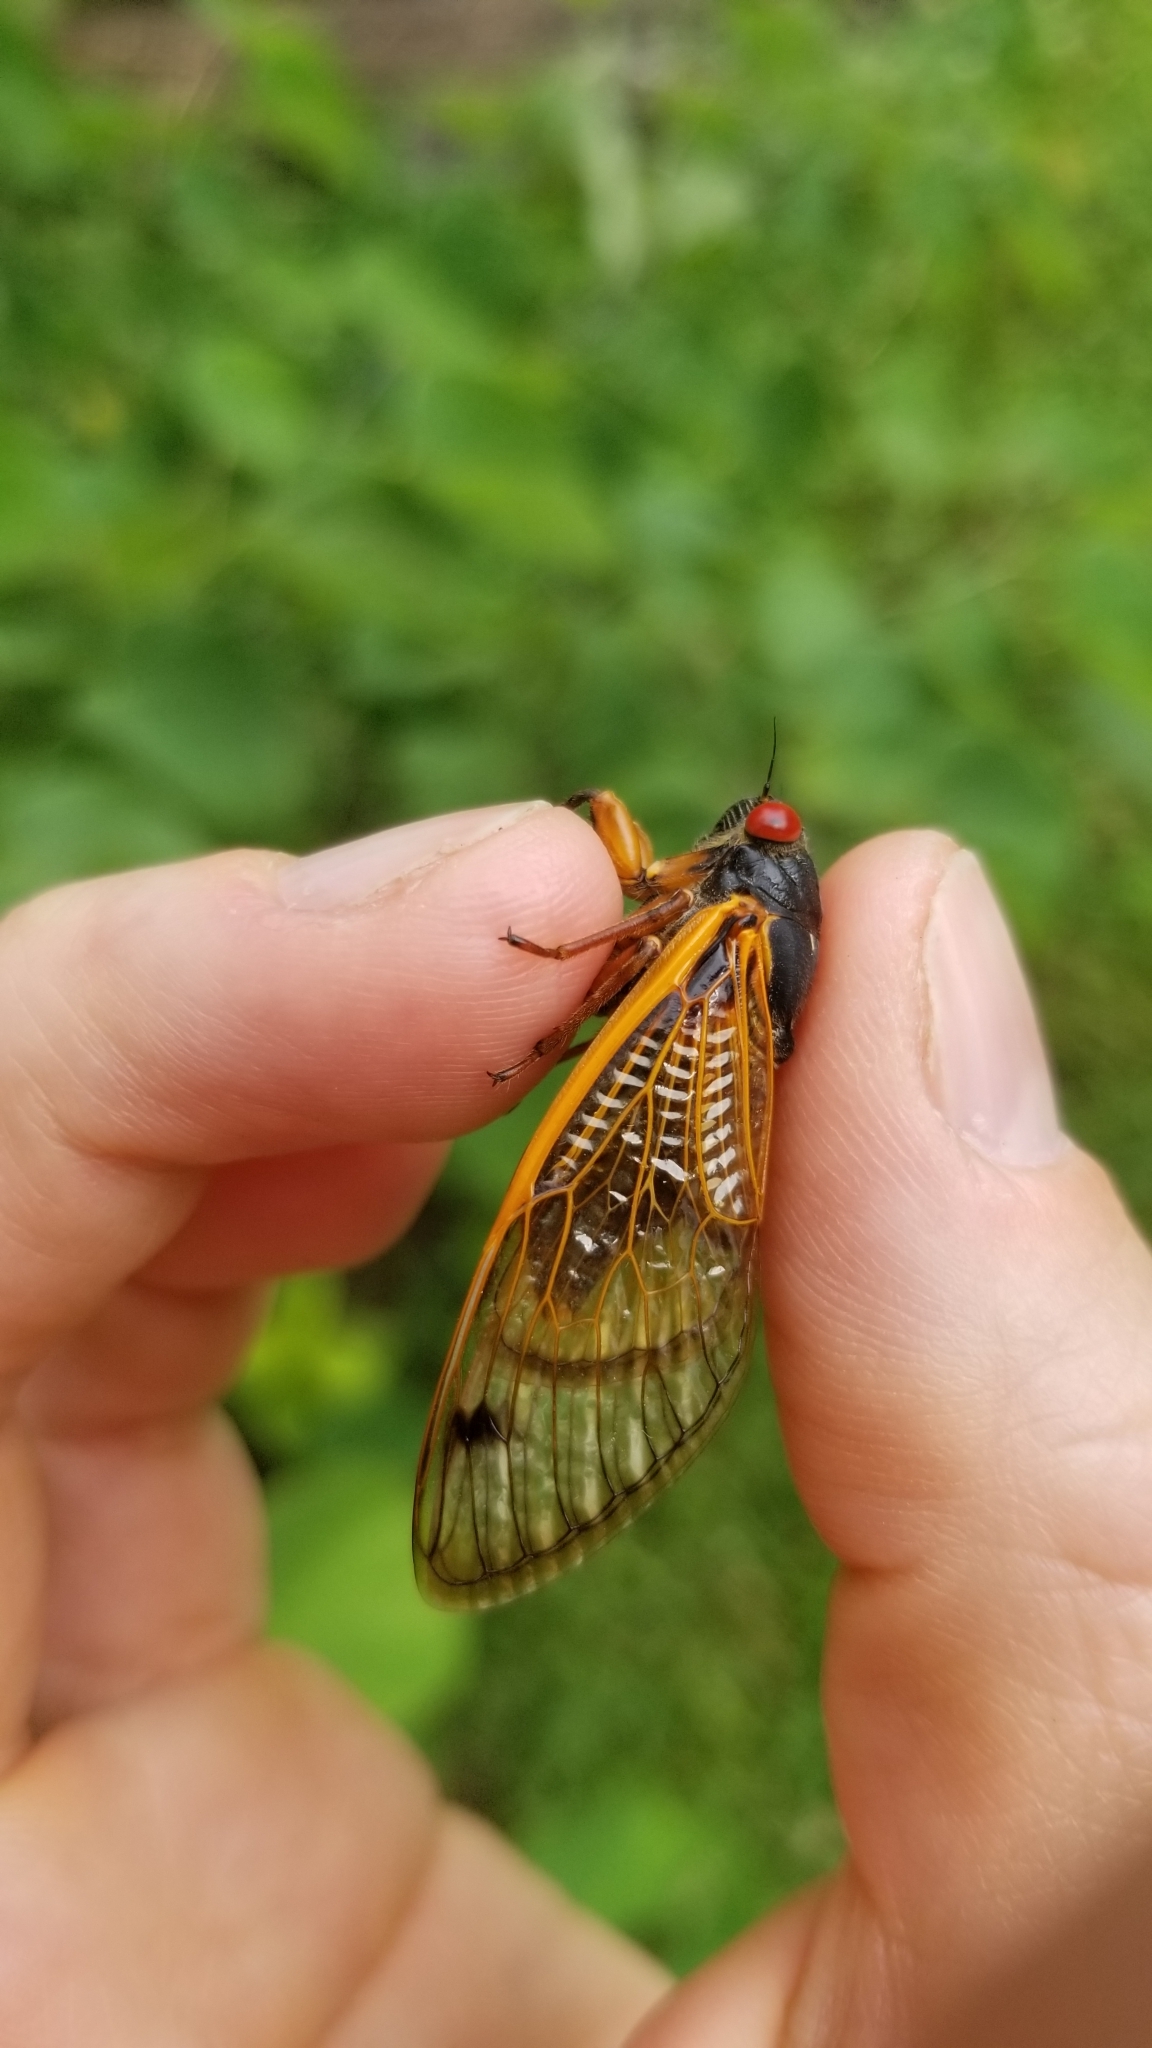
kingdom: Animalia
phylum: Arthropoda
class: Insecta
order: Hemiptera
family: Cicadidae
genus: Magicicada
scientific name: Magicicada cassini
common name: Cassin's 17-year cicada
